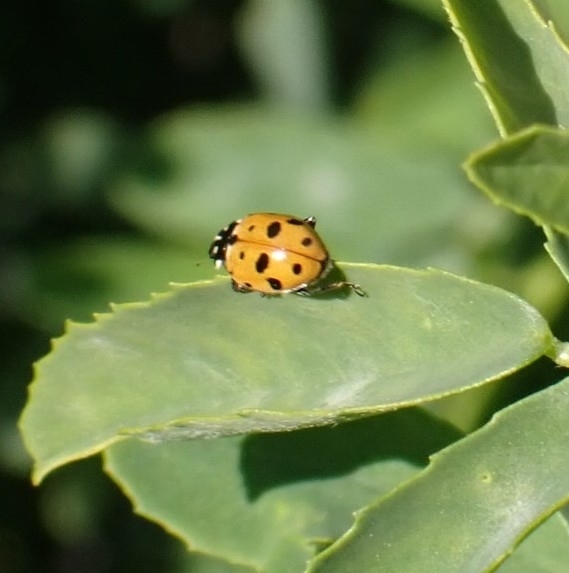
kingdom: Animalia
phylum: Arthropoda
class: Insecta
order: Coleoptera
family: Coccinellidae
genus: Hippodamia
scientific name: Hippodamia variegata
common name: Ladybird beetle
